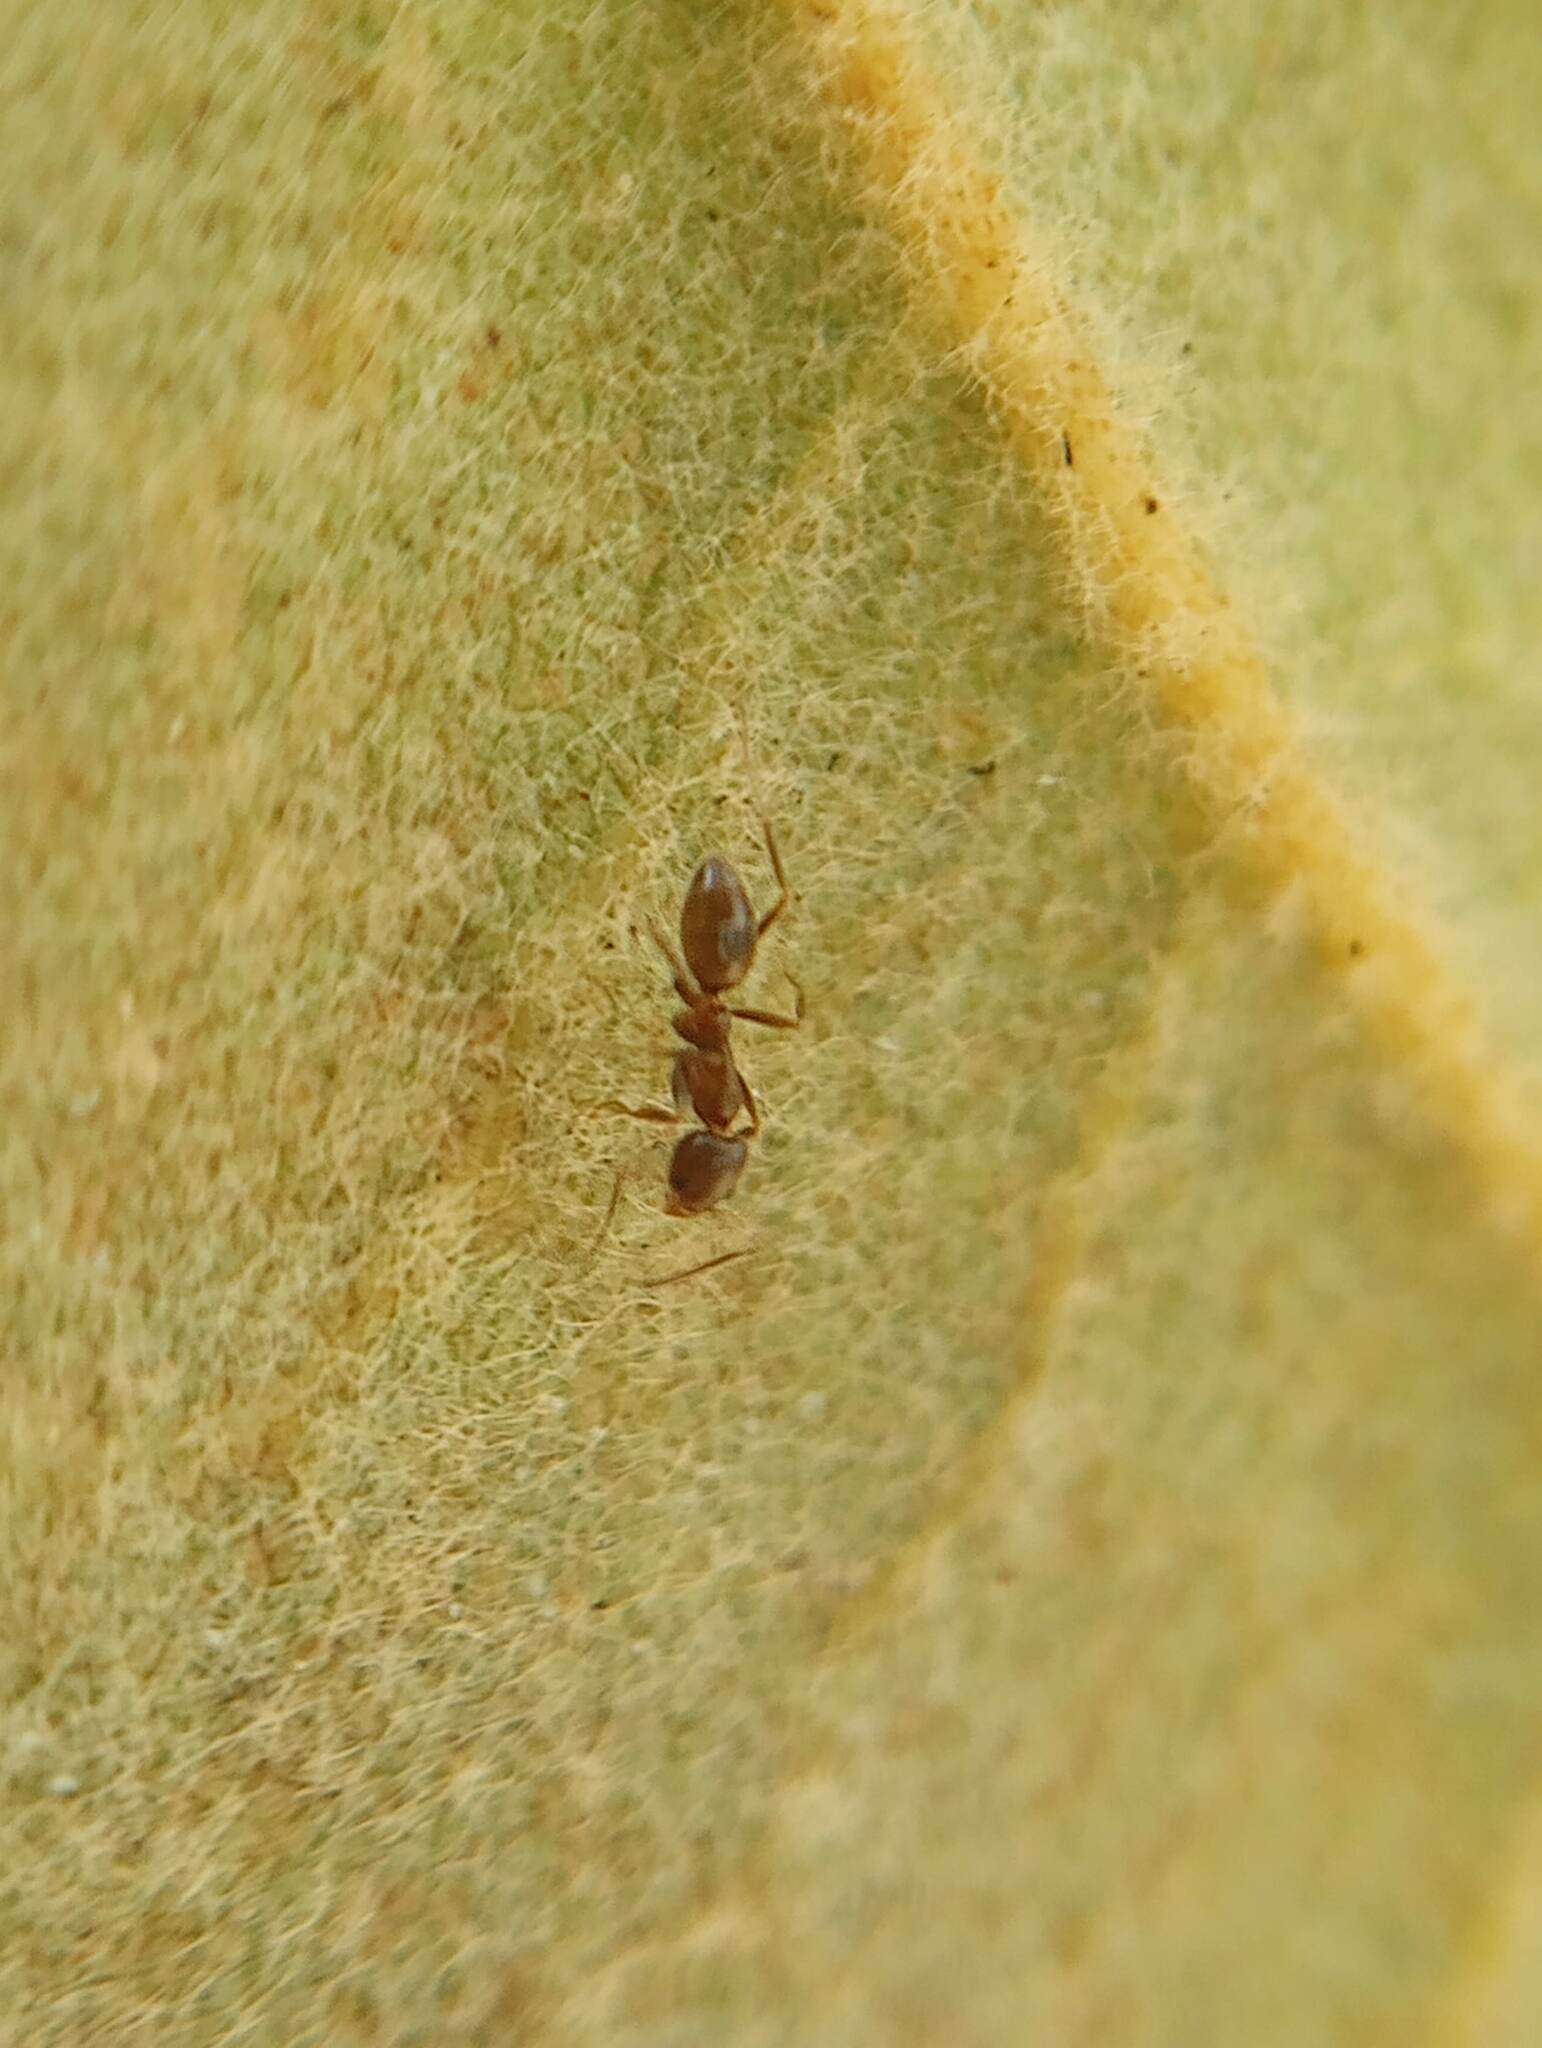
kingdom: Animalia
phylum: Arthropoda
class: Insecta
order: Hymenoptera
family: Formicidae
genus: Linepithema
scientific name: Linepithema humile
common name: Argentine ant
